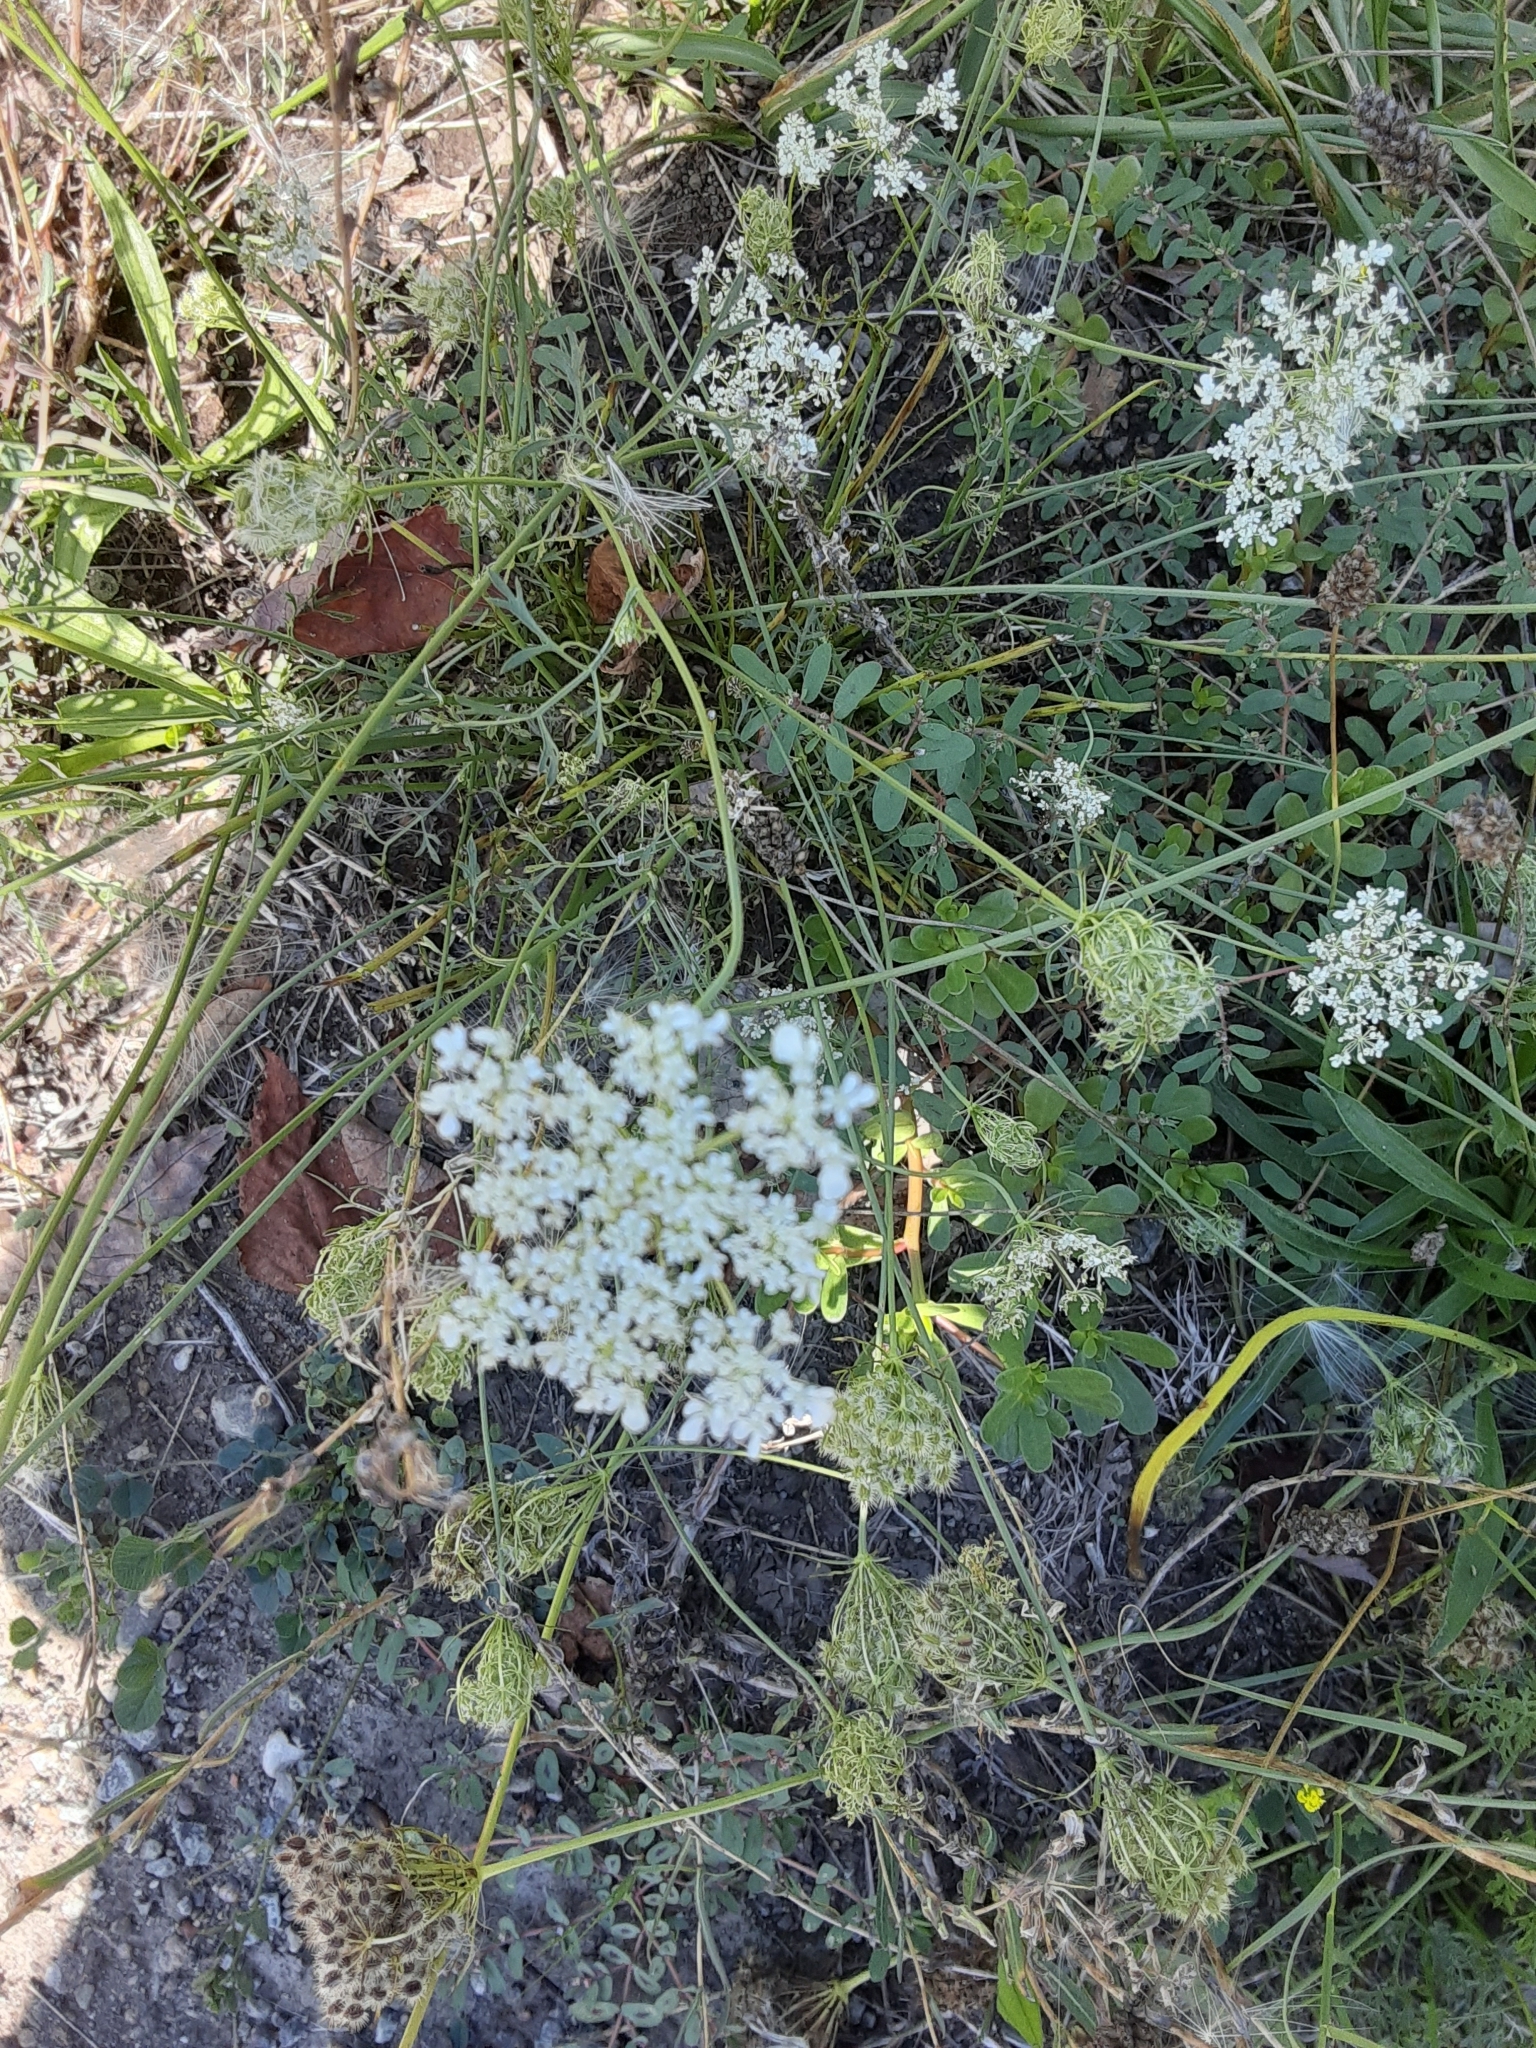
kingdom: Plantae
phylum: Tracheophyta
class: Magnoliopsida
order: Apiales
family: Apiaceae
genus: Daucus
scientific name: Daucus carota
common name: Wild carrot
